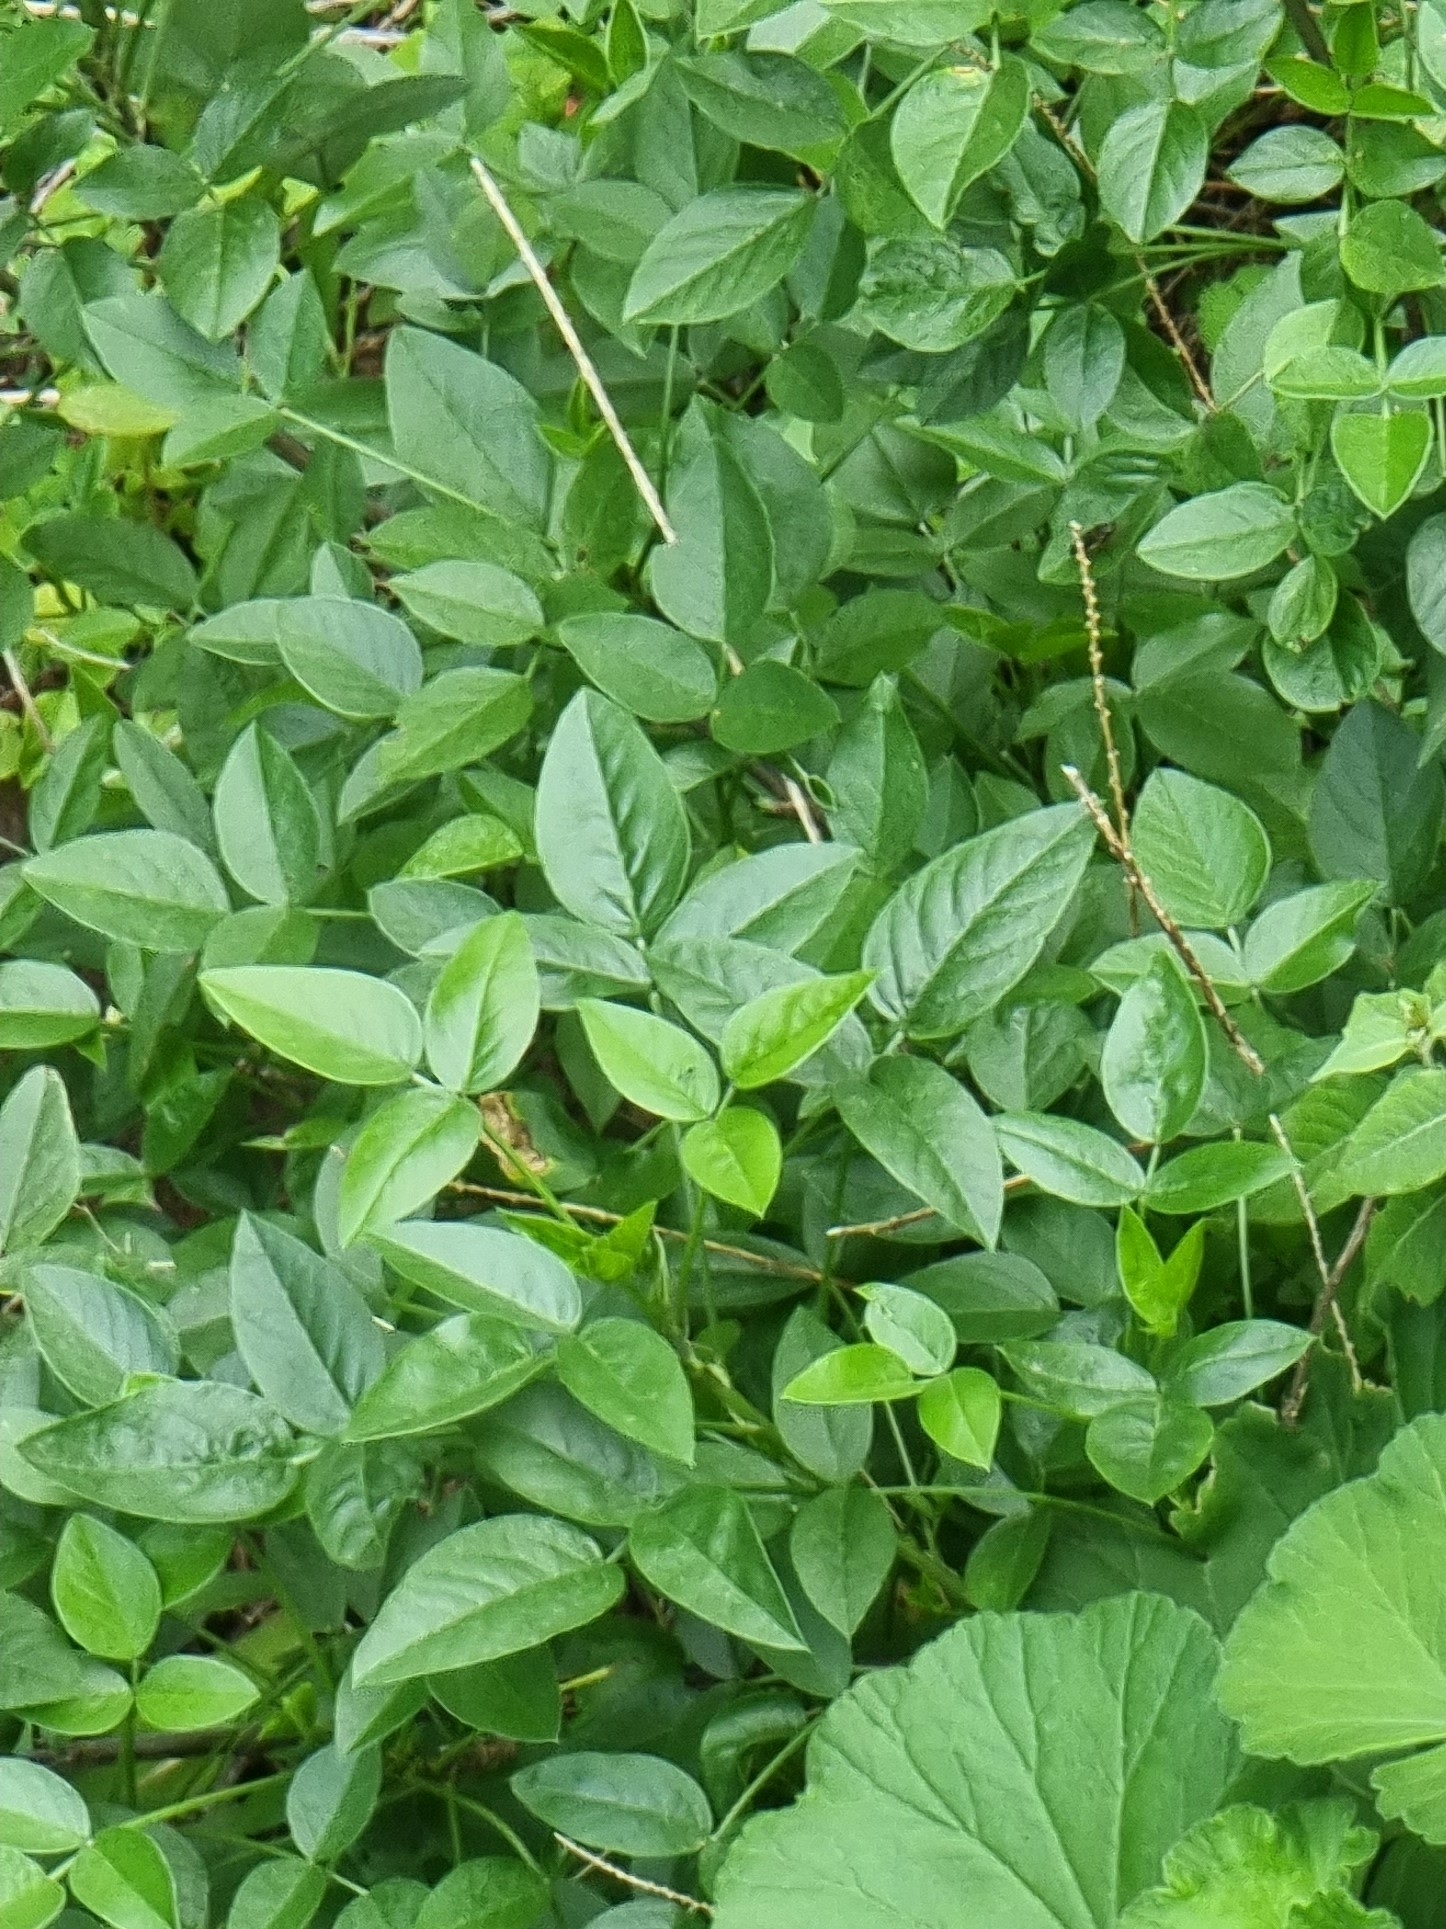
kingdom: Plantae
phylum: Tracheophyta
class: Magnoliopsida
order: Fabales
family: Fabaceae
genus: Bituminaria
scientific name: Bituminaria bituminosa
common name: Arabian pea
